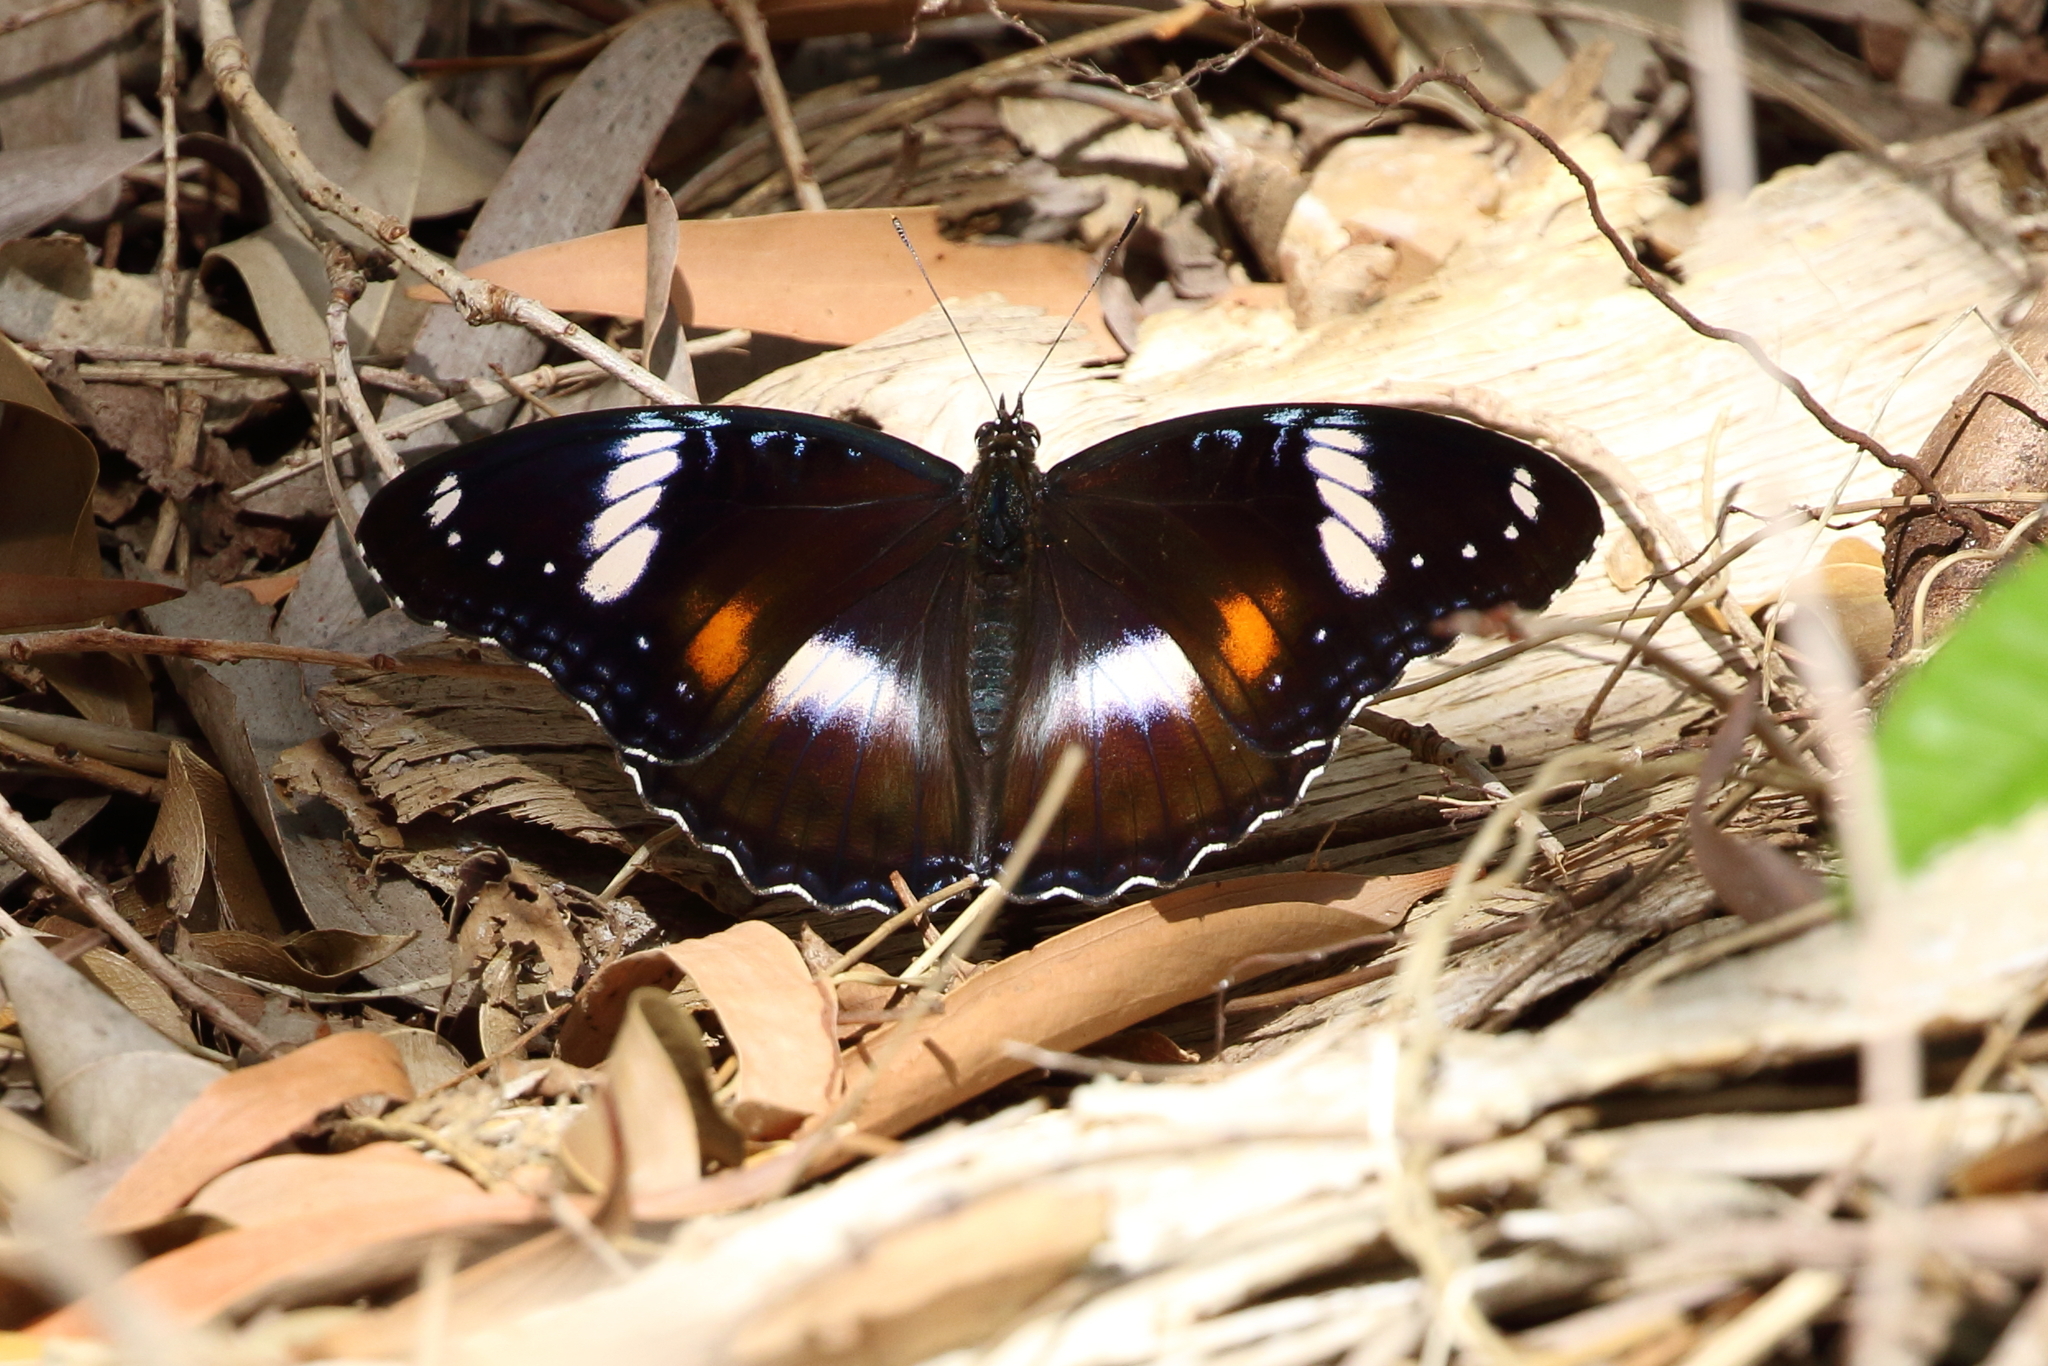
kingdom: Animalia
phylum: Arthropoda
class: Insecta
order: Lepidoptera
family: Nymphalidae
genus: Hypolimnas
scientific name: Hypolimnas bolina
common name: Great eggfly
